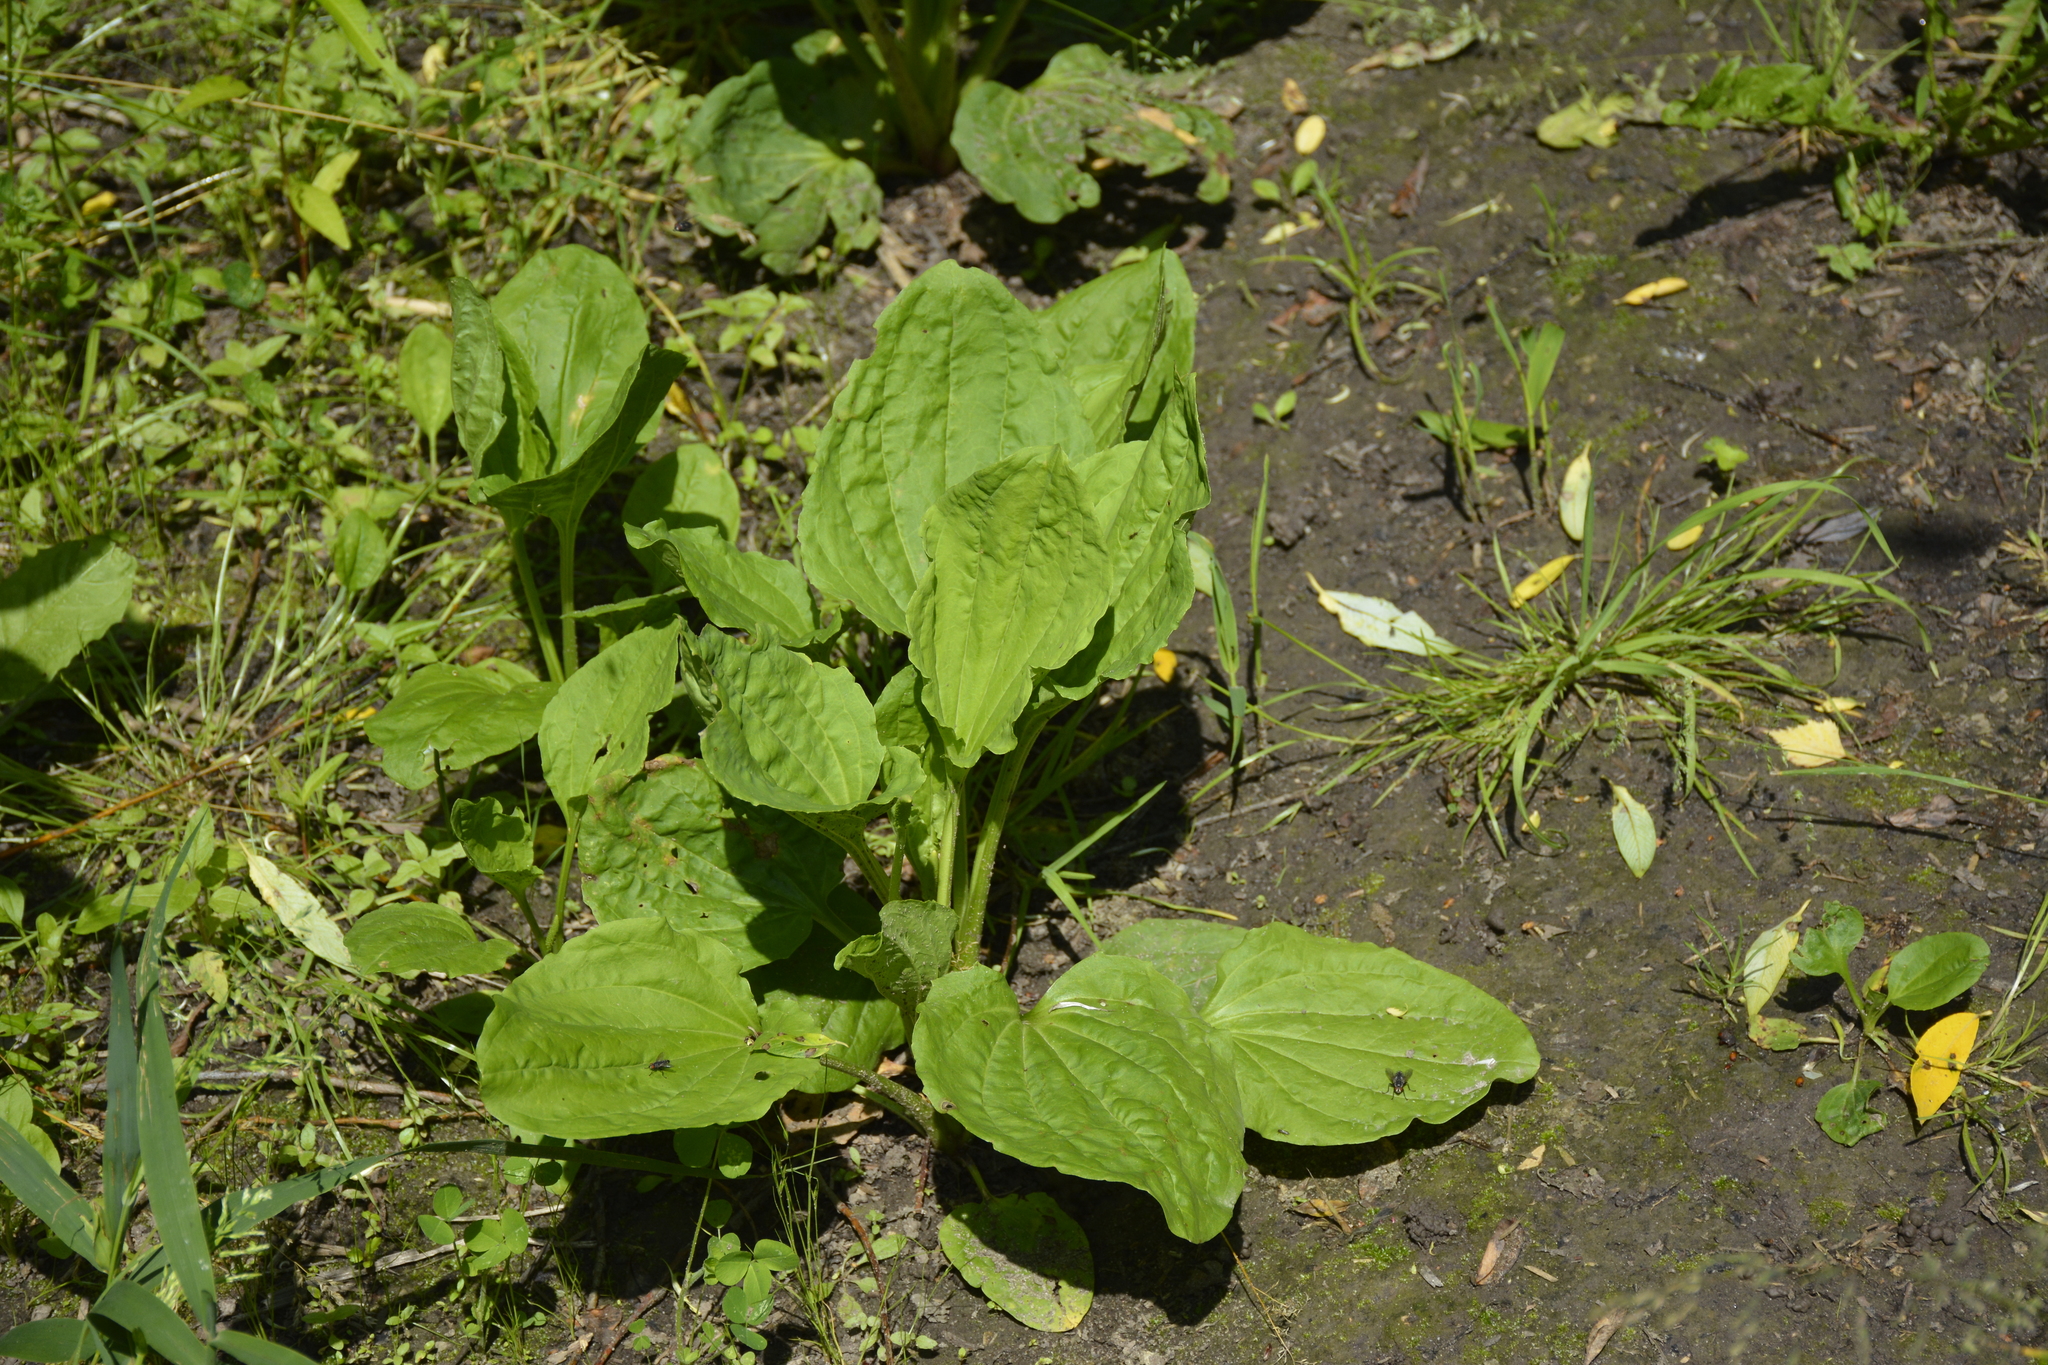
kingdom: Plantae
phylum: Tracheophyta
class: Magnoliopsida
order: Lamiales
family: Plantaginaceae
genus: Plantago
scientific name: Plantago major
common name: Common plantain
